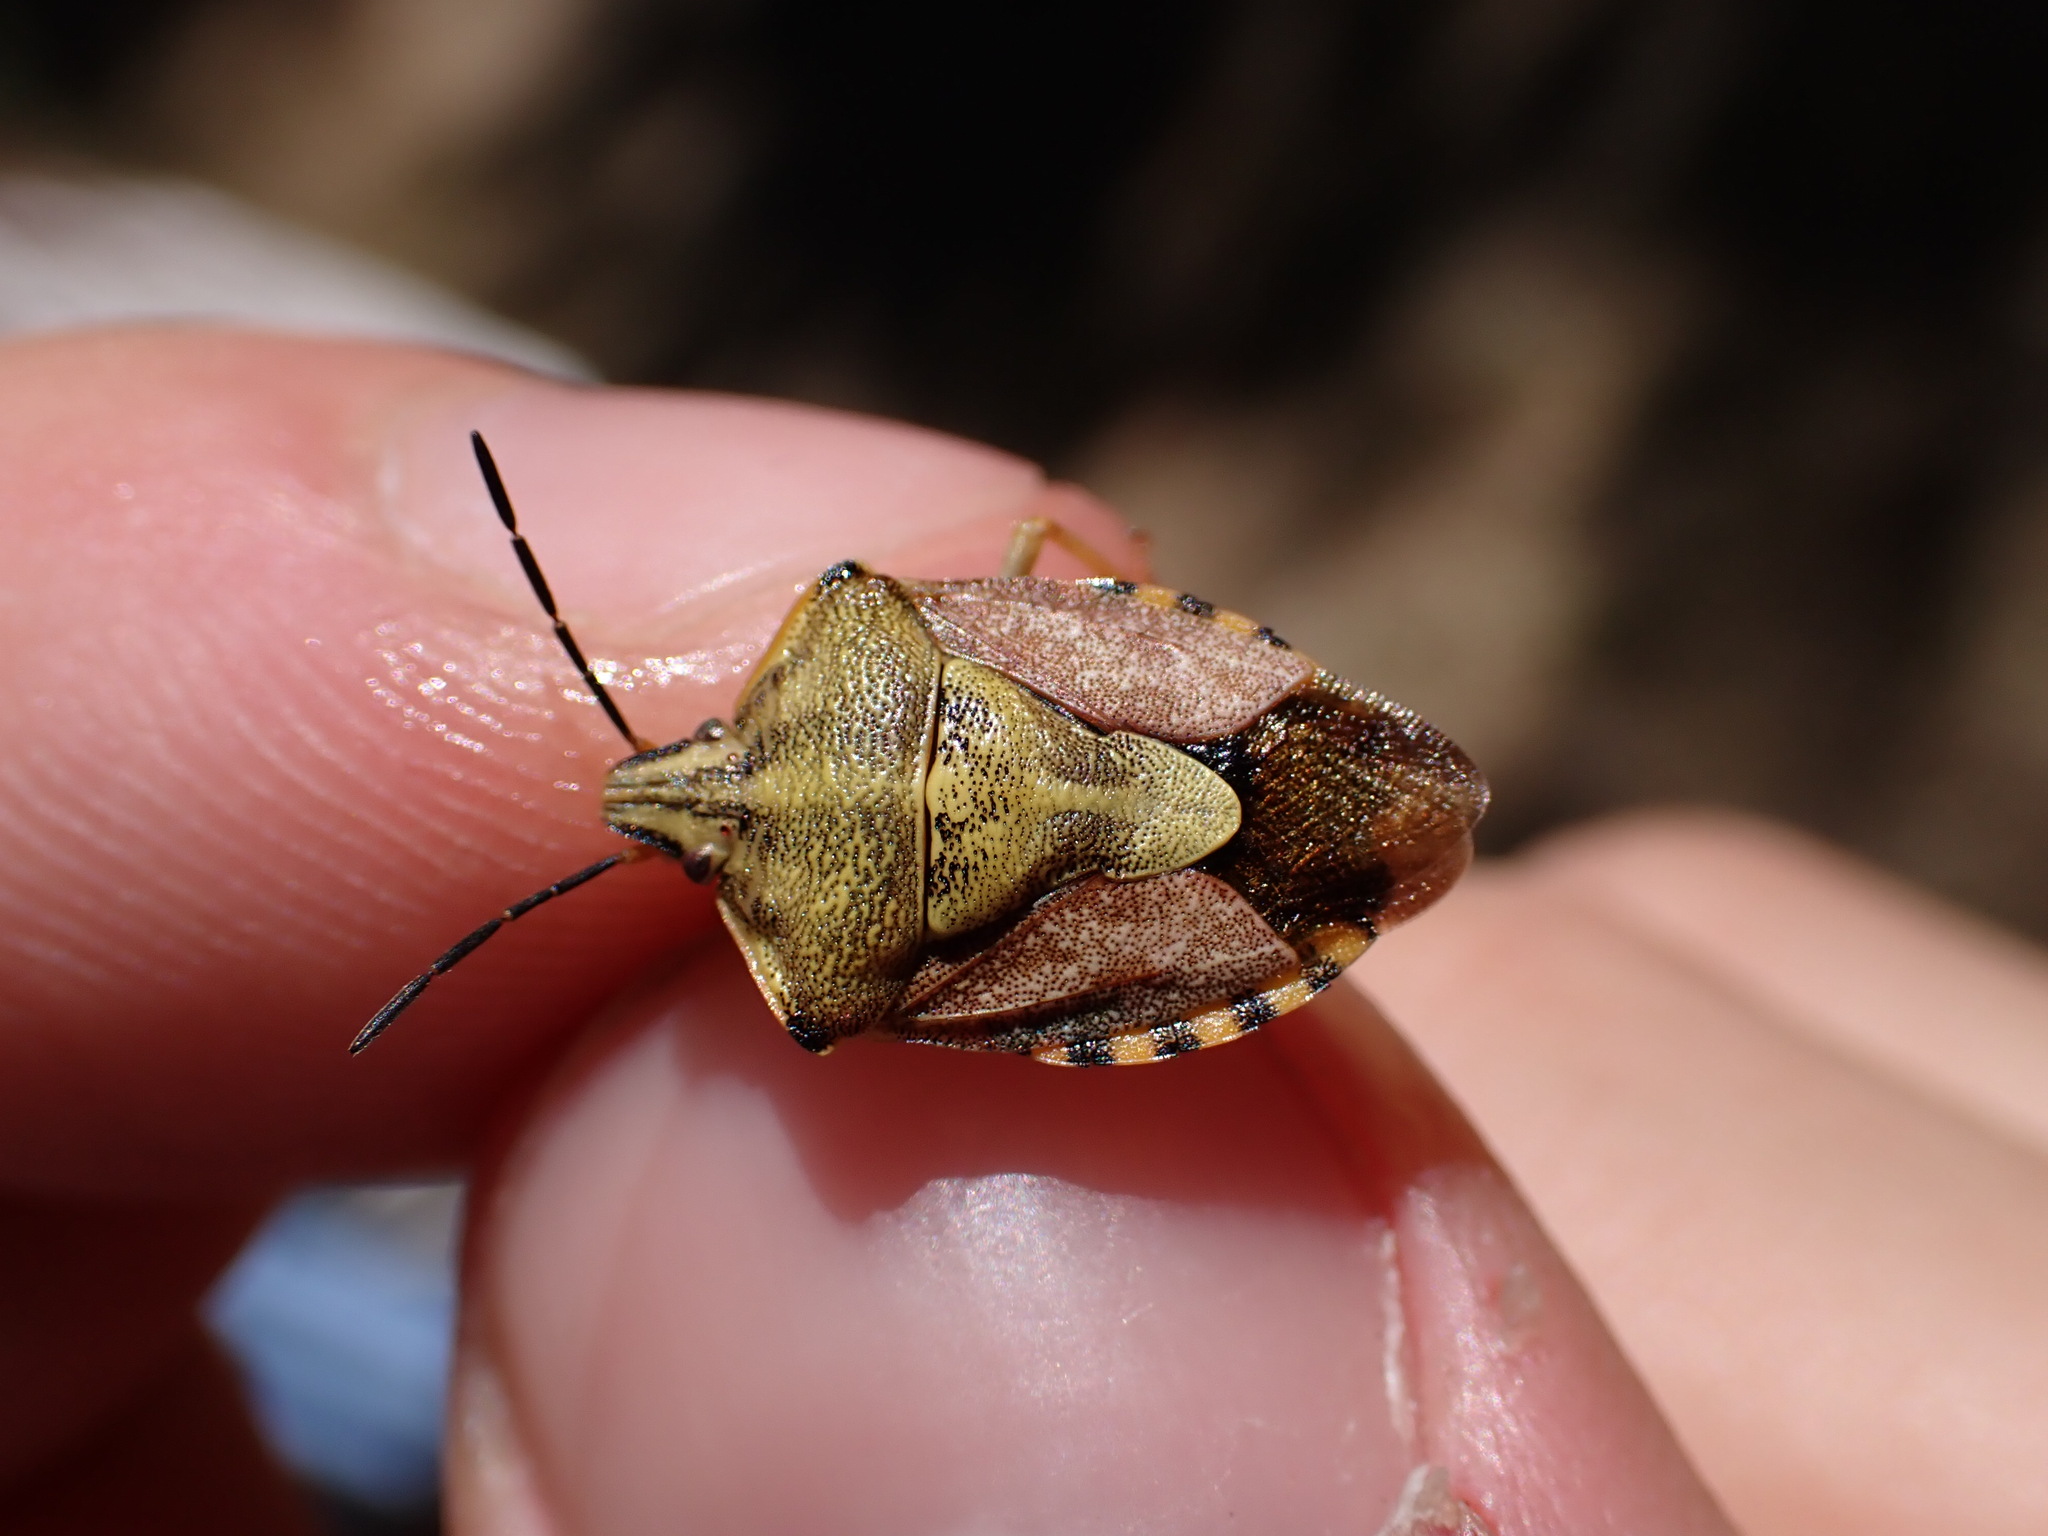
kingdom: Animalia
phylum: Arthropoda
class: Insecta
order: Hemiptera
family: Pentatomidae
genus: Carpocoris
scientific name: Carpocoris purpureipennis
